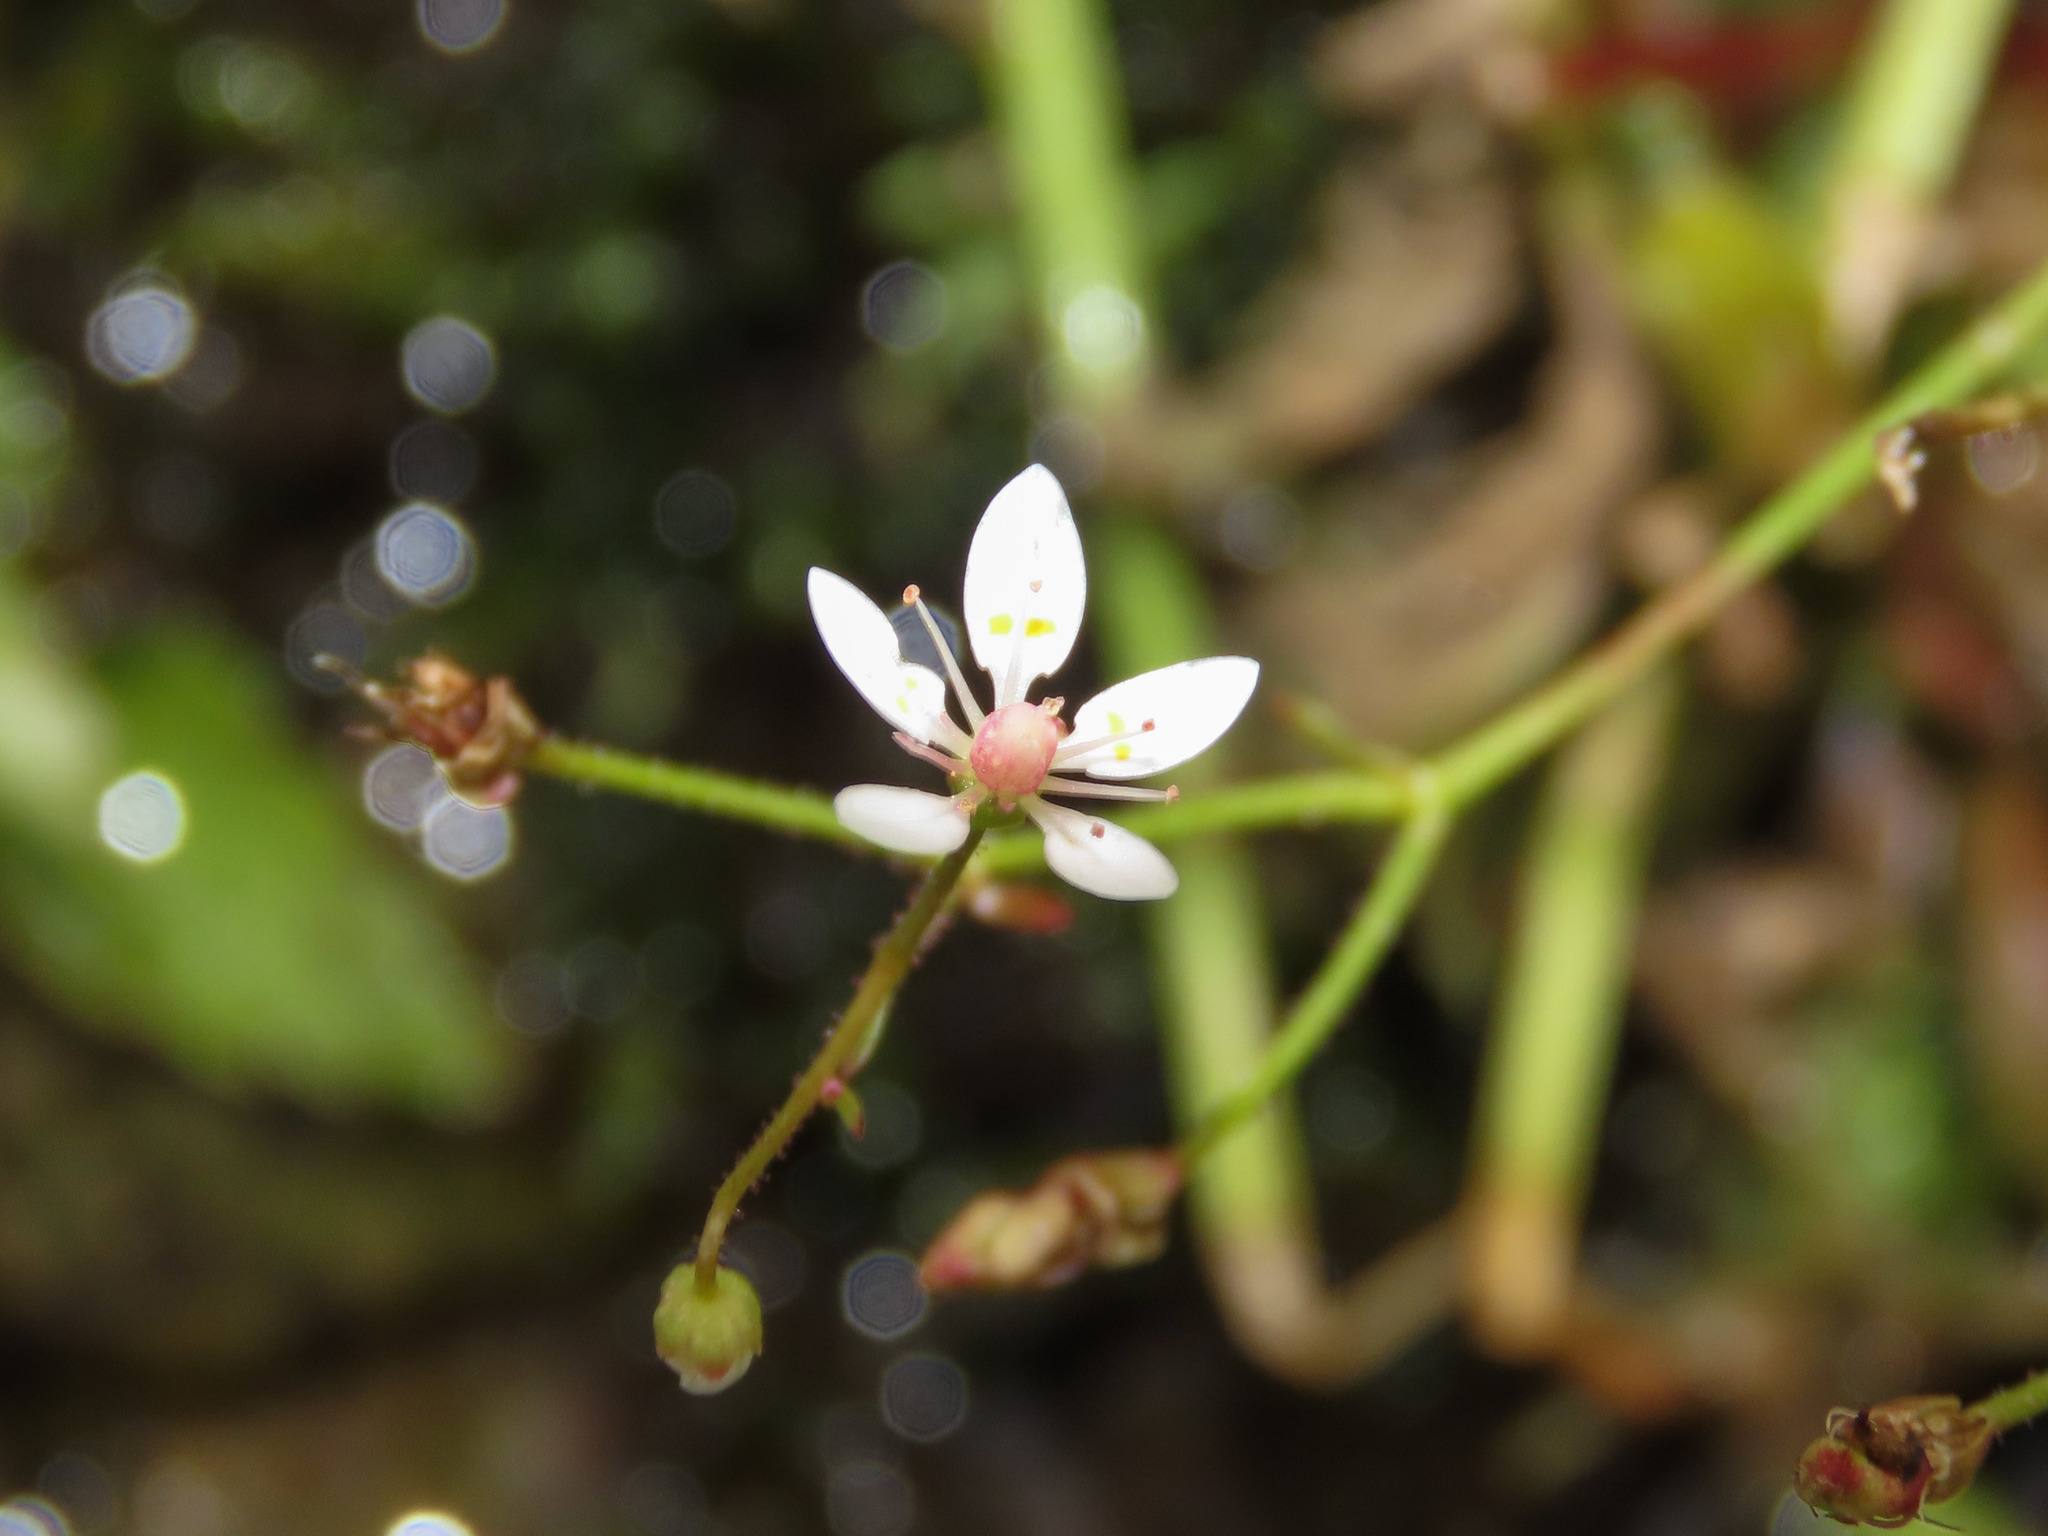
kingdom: Plantae
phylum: Tracheophyta
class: Magnoliopsida
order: Saxifragales
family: Saxifragaceae
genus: Micranthes
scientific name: Micranthes stellaris
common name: Starry saxifrage
